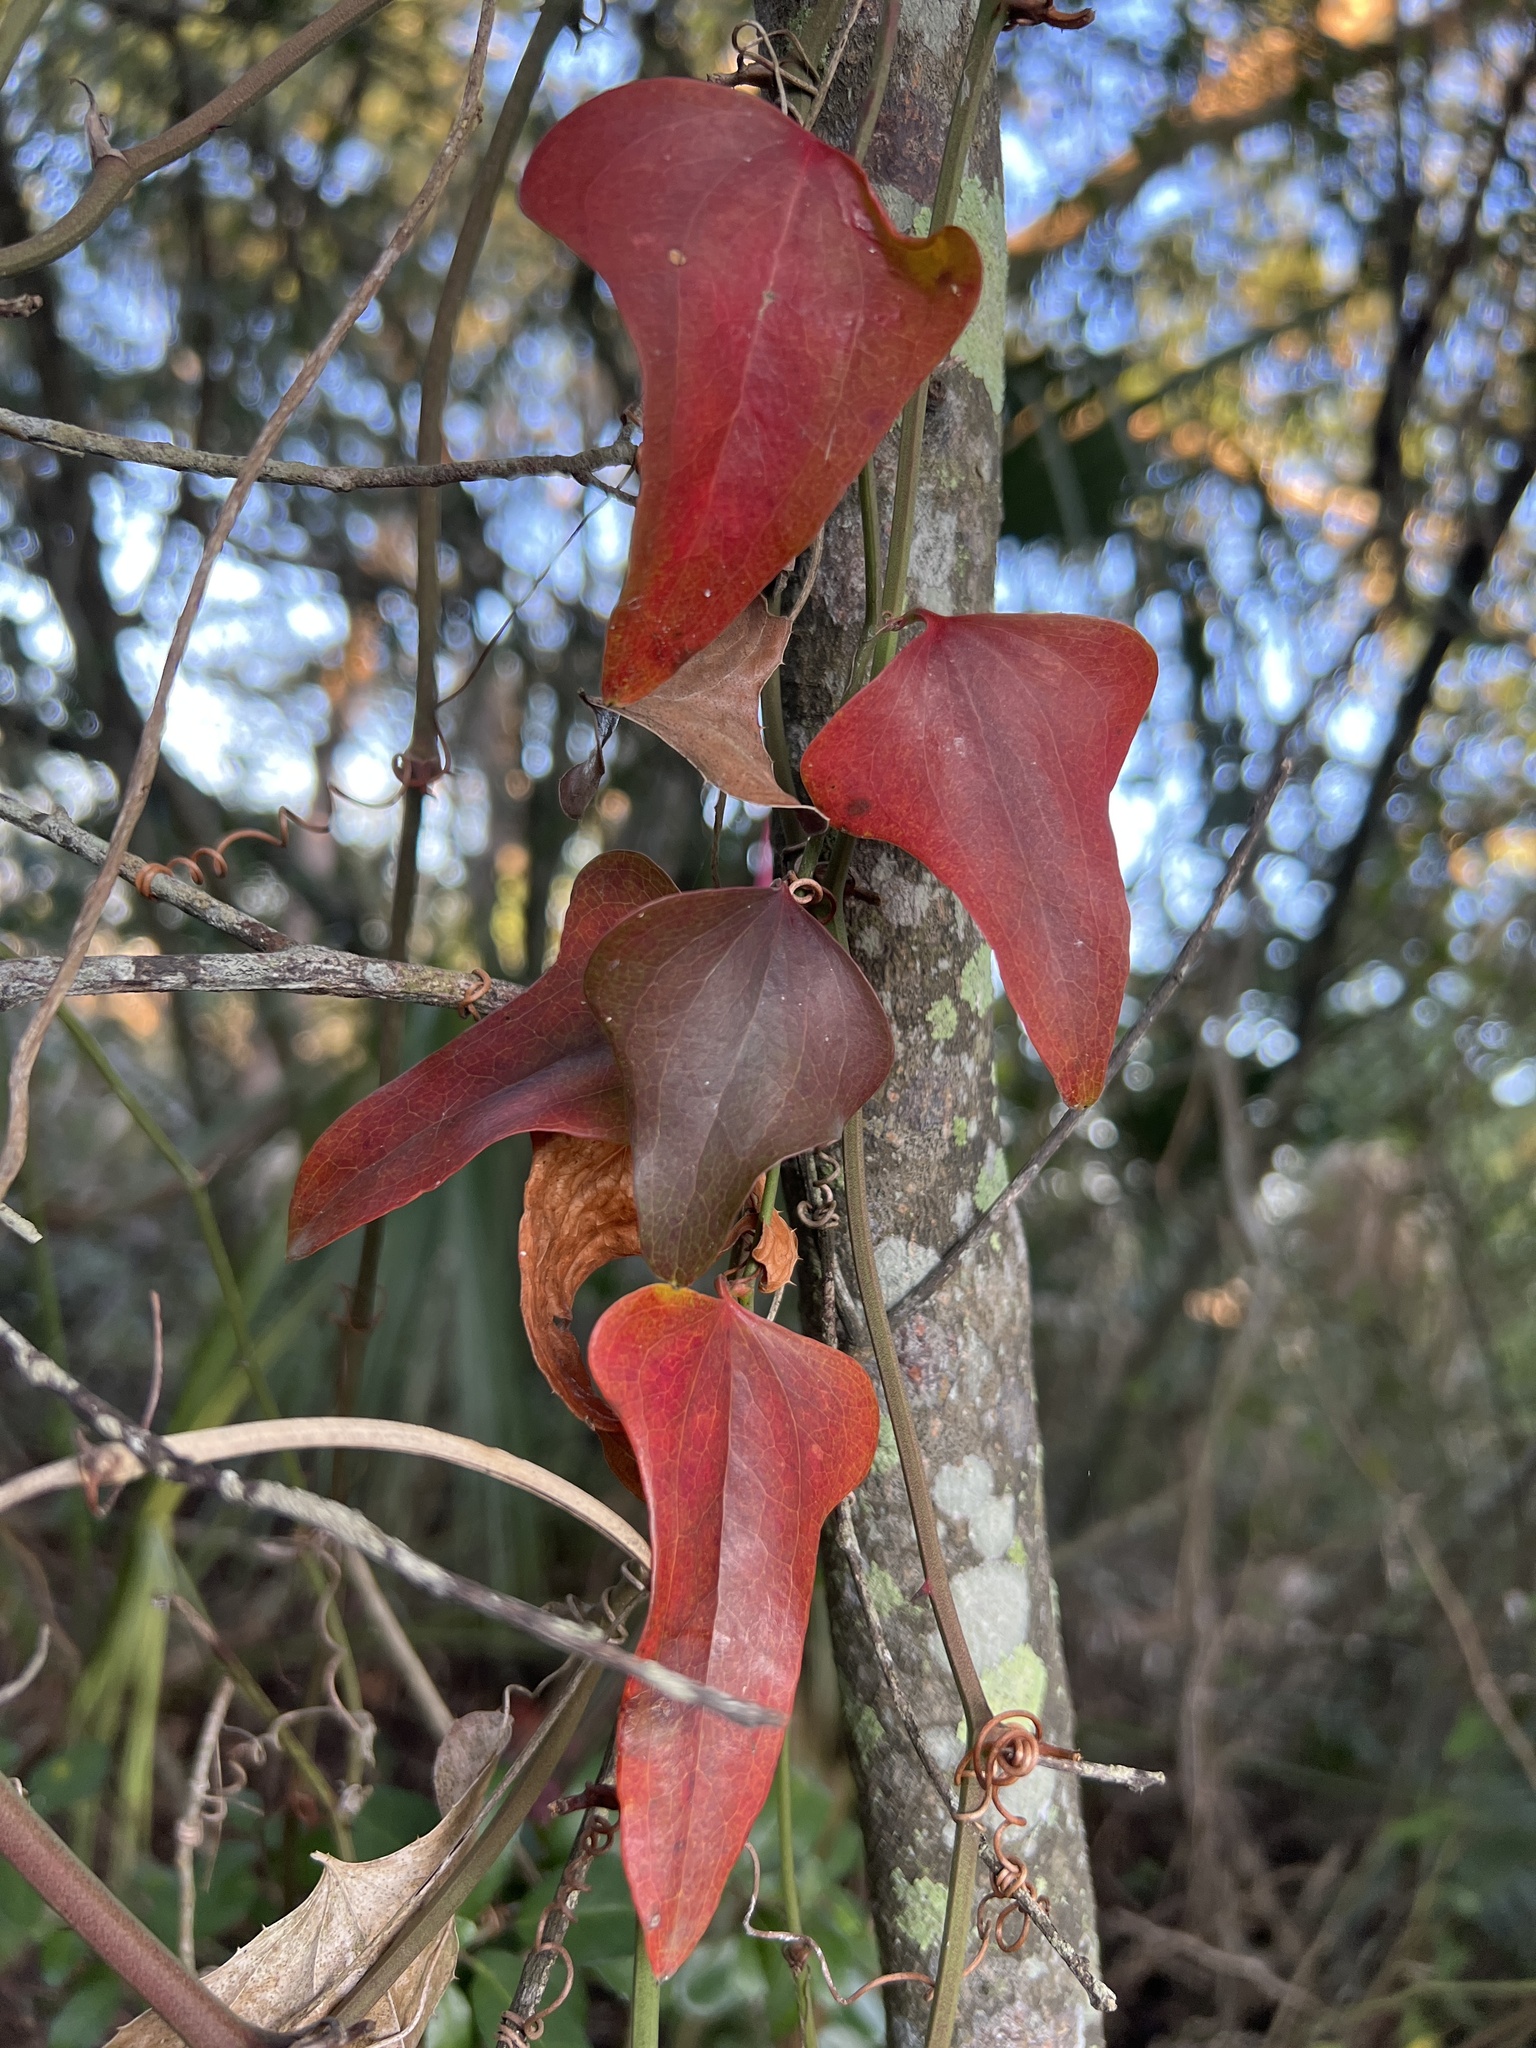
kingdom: Plantae
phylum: Tracheophyta
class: Liliopsida
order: Liliales
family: Smilacaceae
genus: Smilax
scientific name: Smilax bona-nox
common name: Catbrier
